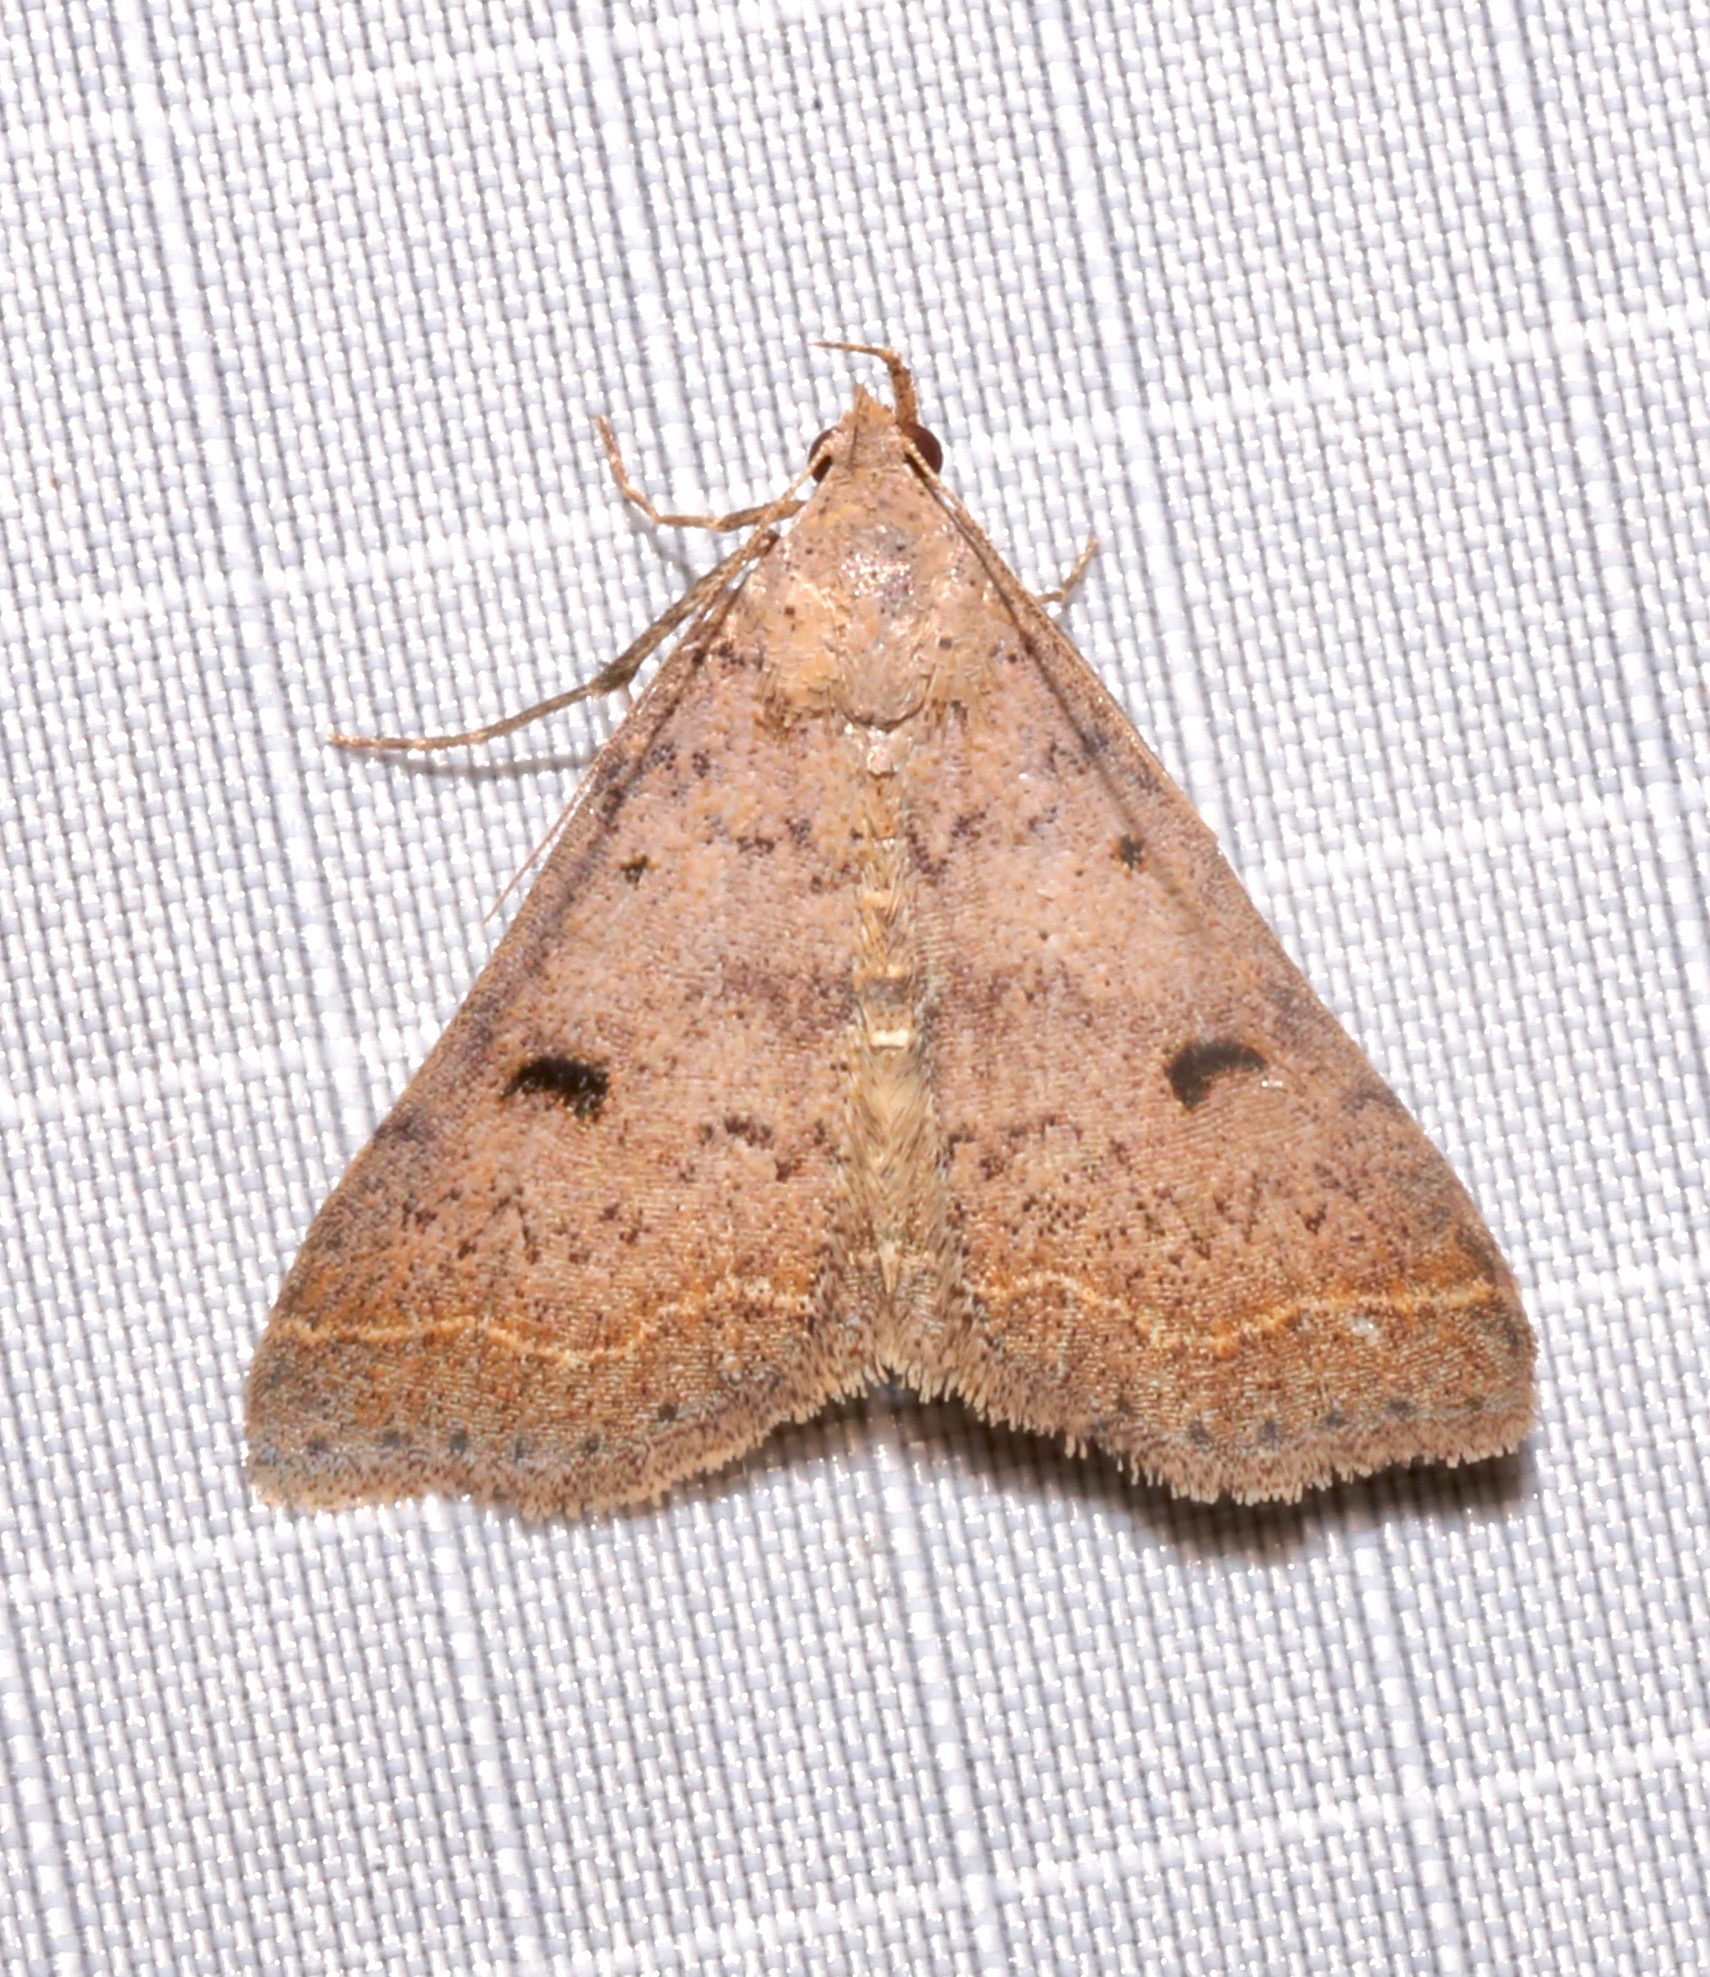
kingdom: Animalia
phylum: Arthropoda
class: Insecta
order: Lepidoptera
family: Erebidae
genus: Bleptina
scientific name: Bleptina caradrinalis
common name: Bent-winged owlet
